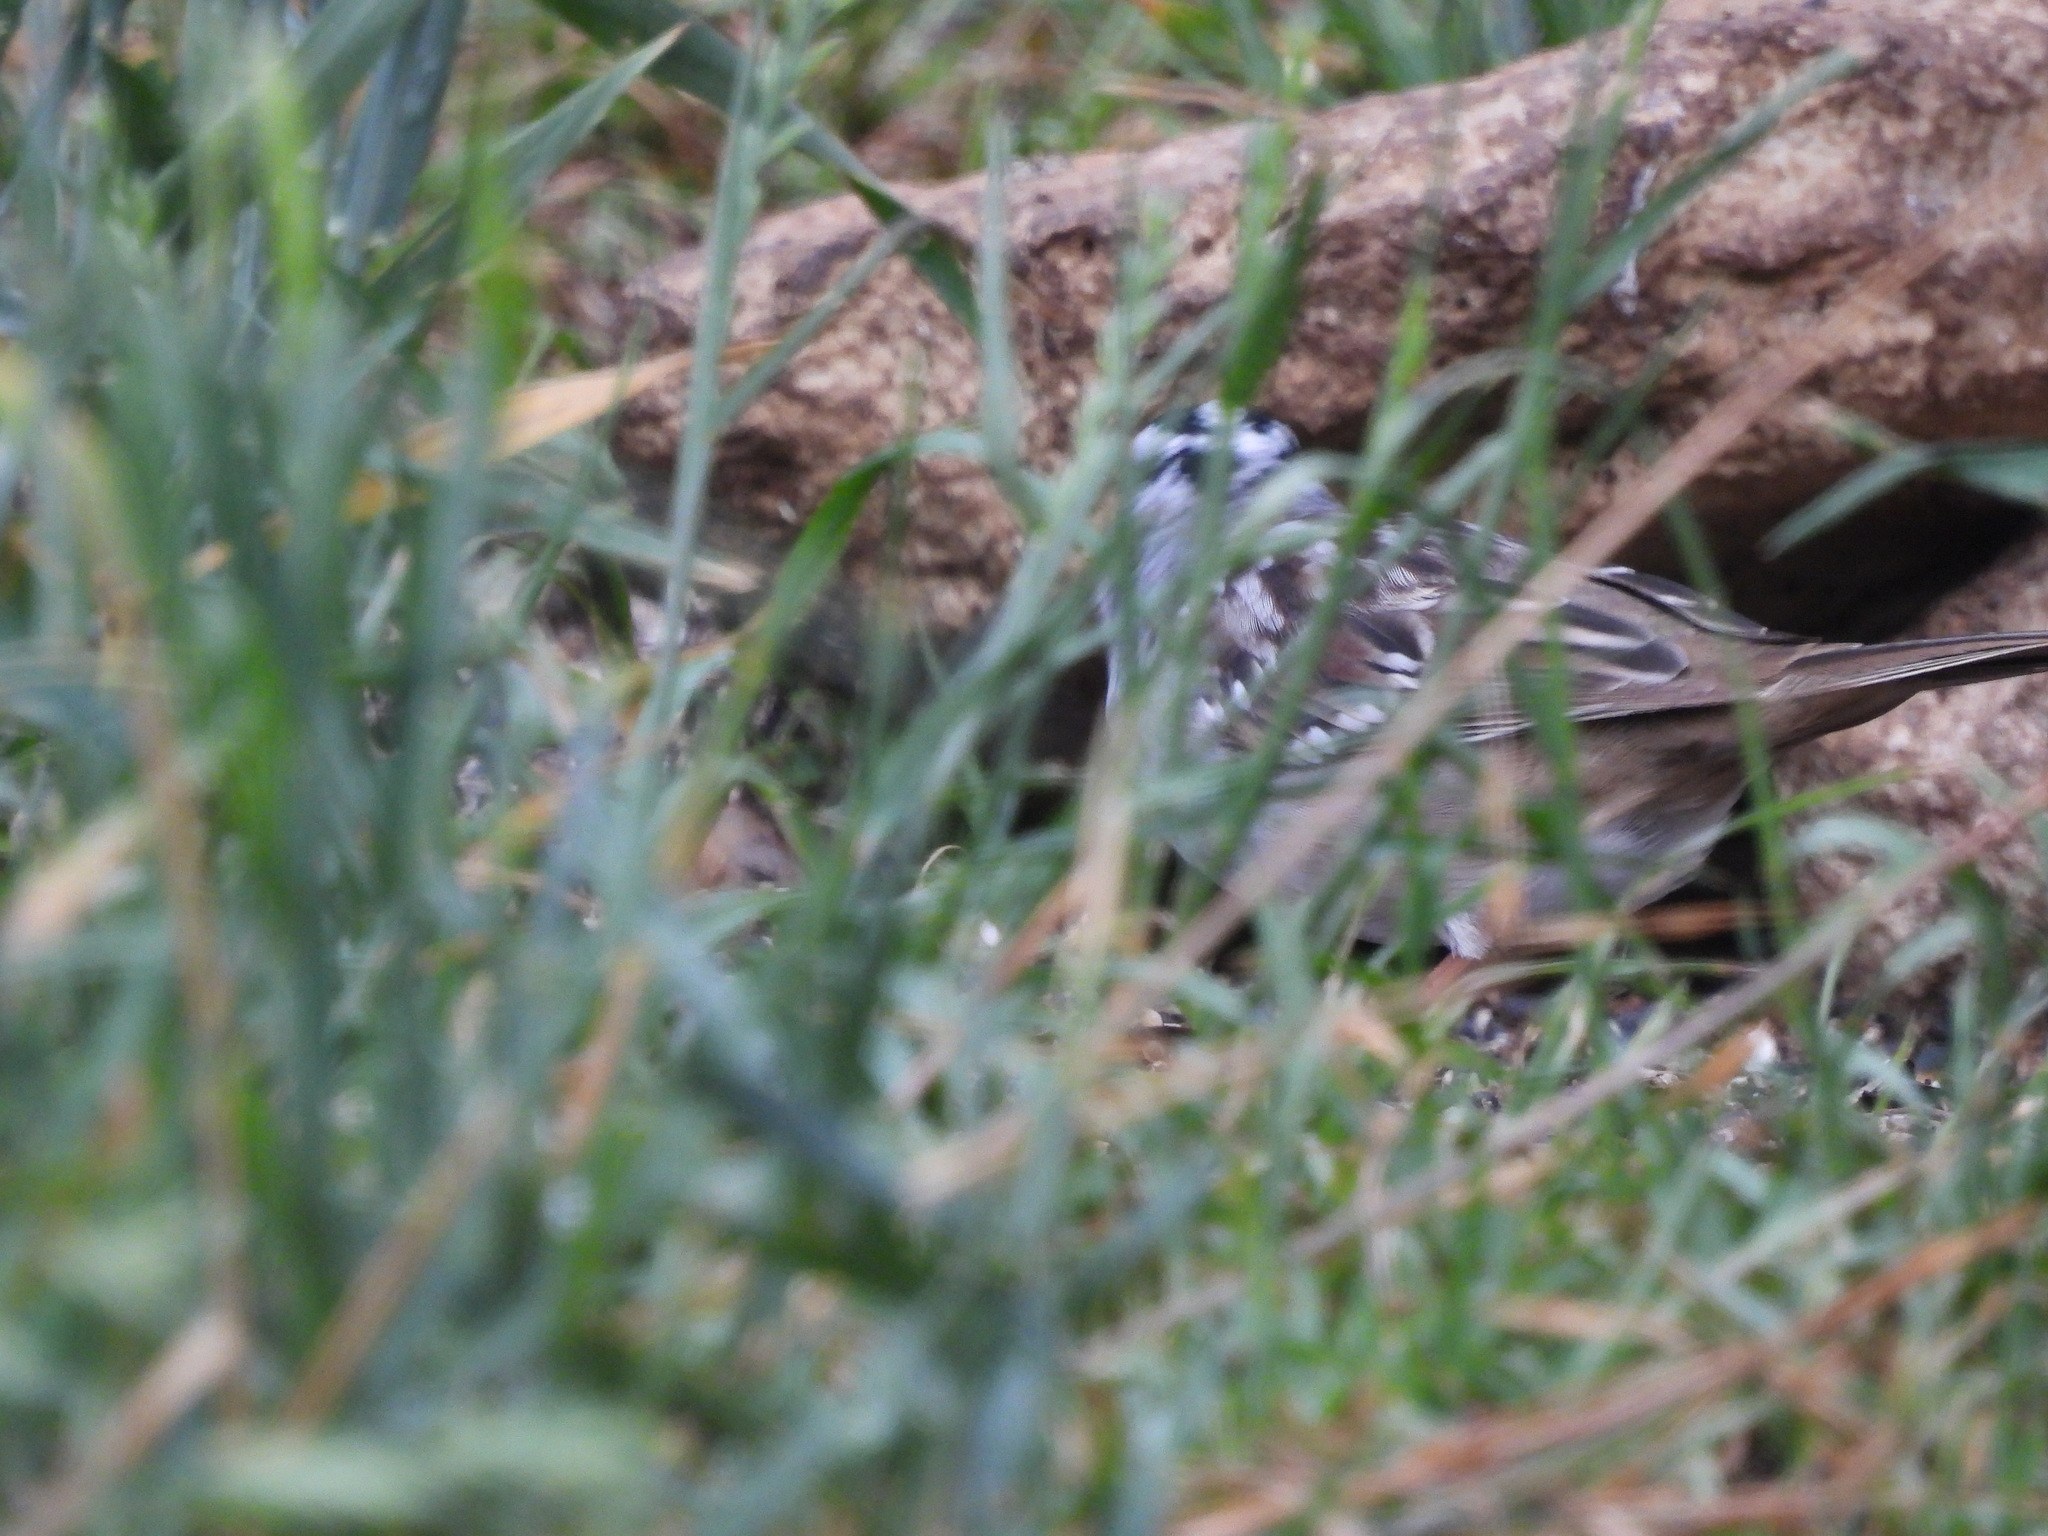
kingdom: Animalia
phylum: Chordata
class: Aves
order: Passeriformes
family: Passerellidae
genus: Zonotrichia
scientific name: Zonotrichia leucophrys
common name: White-crowned sparrow
